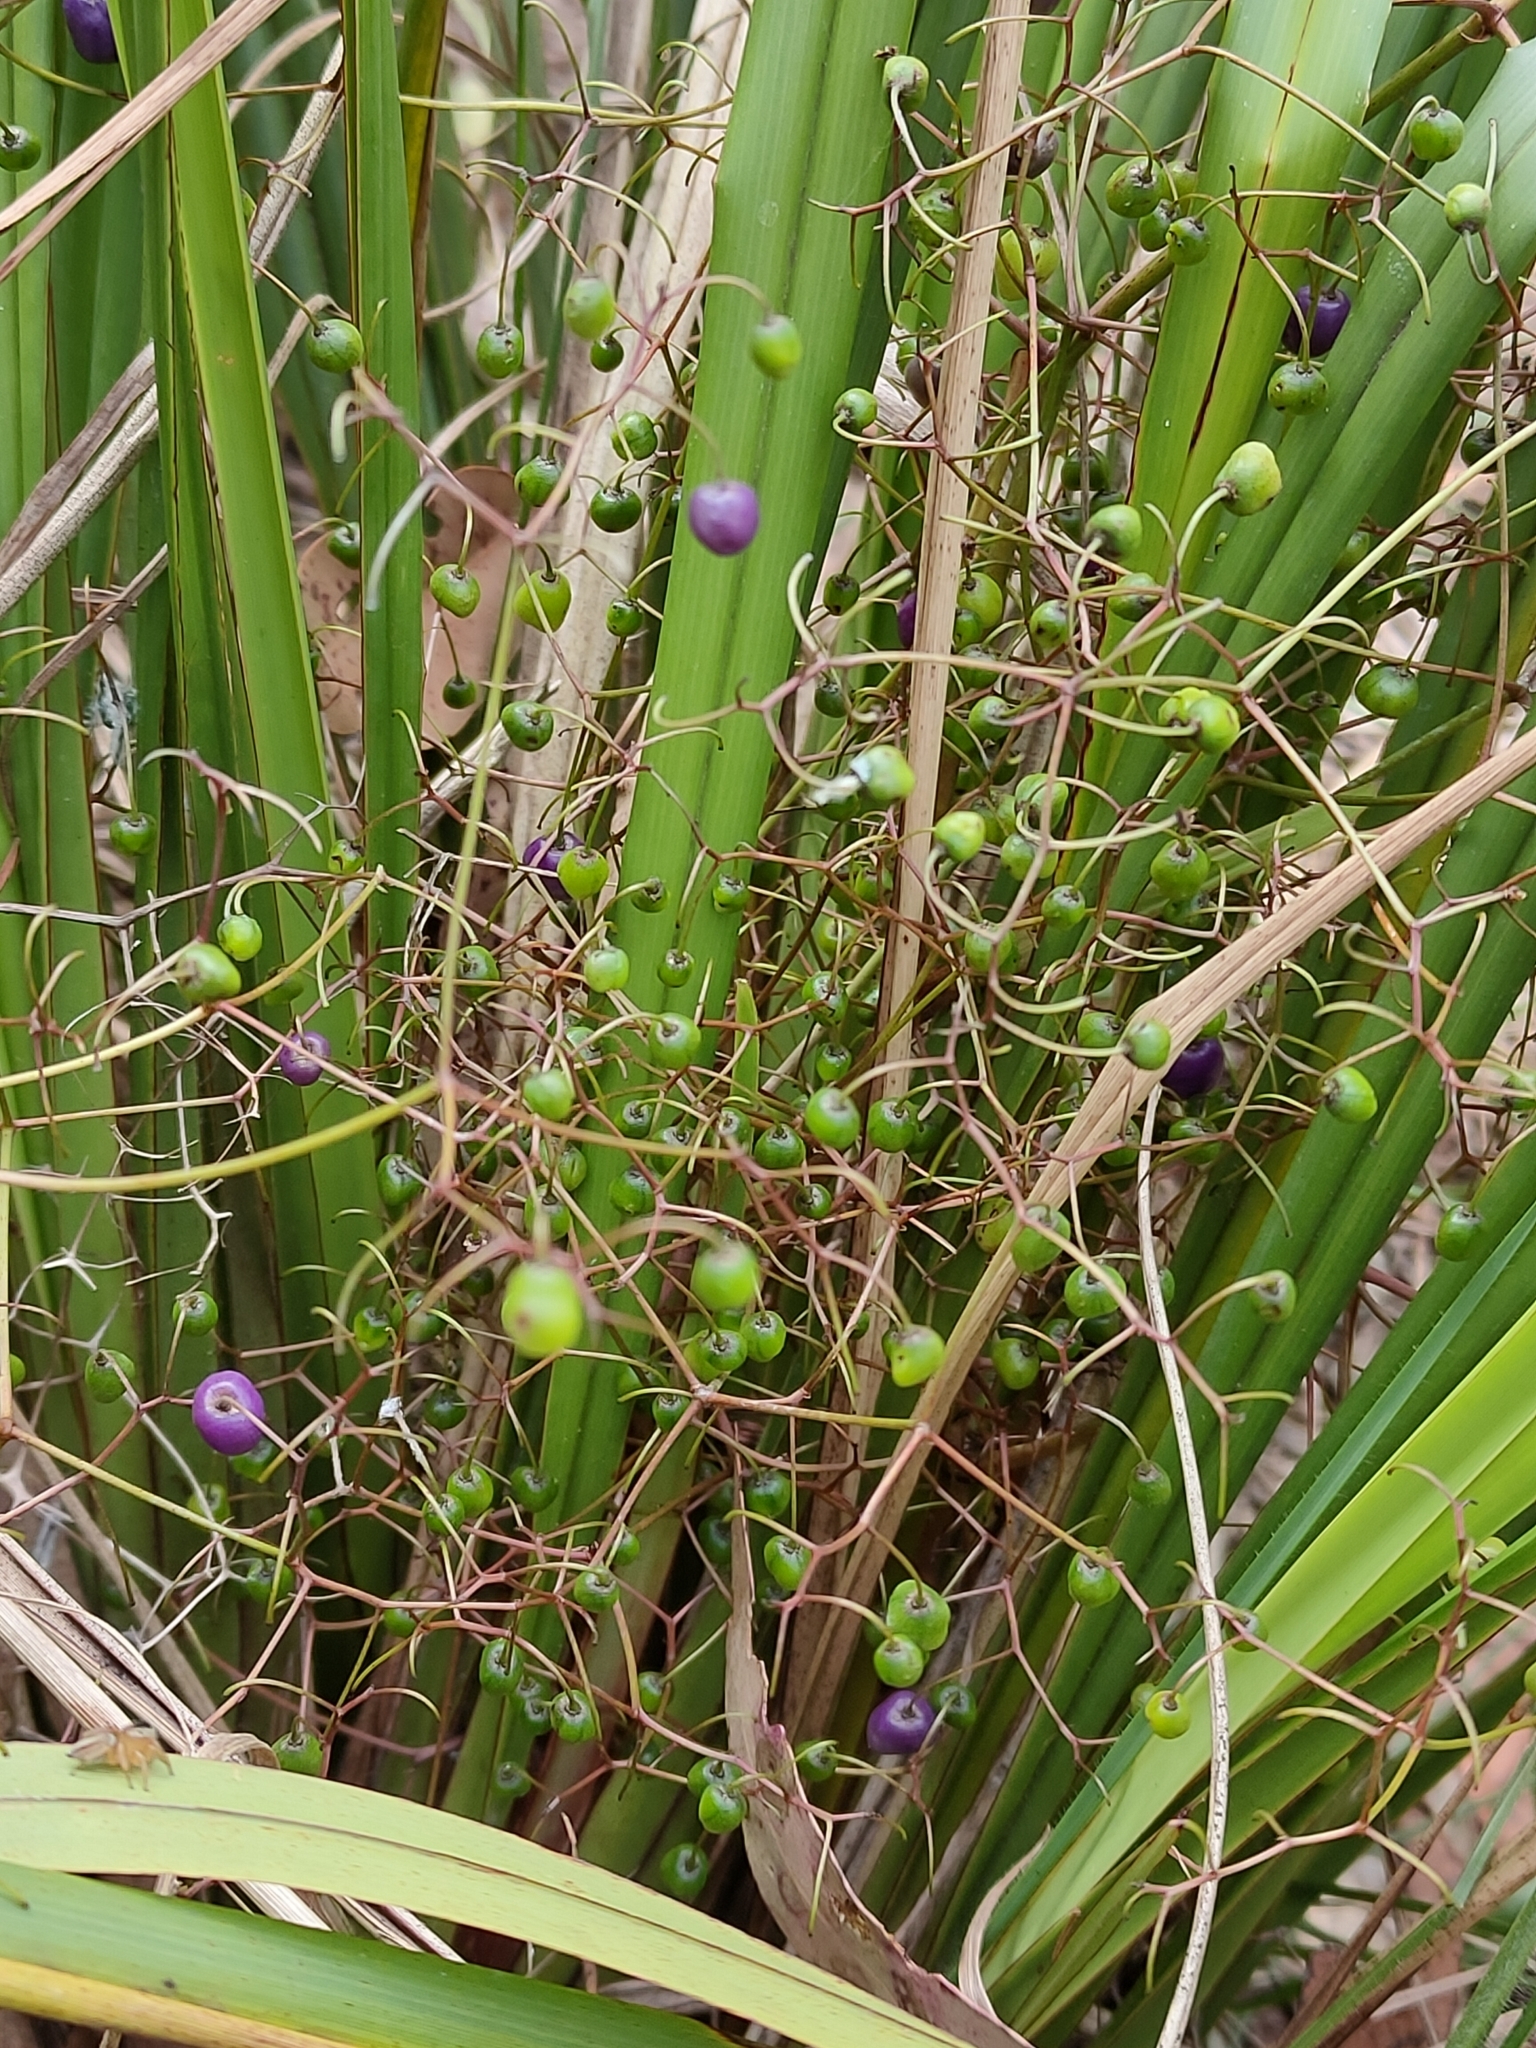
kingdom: Plantae
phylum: Tracheophyta
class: Liliopsida
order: Asparagales
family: Asphodelaceae
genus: Dianella
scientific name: Dianella brevipedunculata
